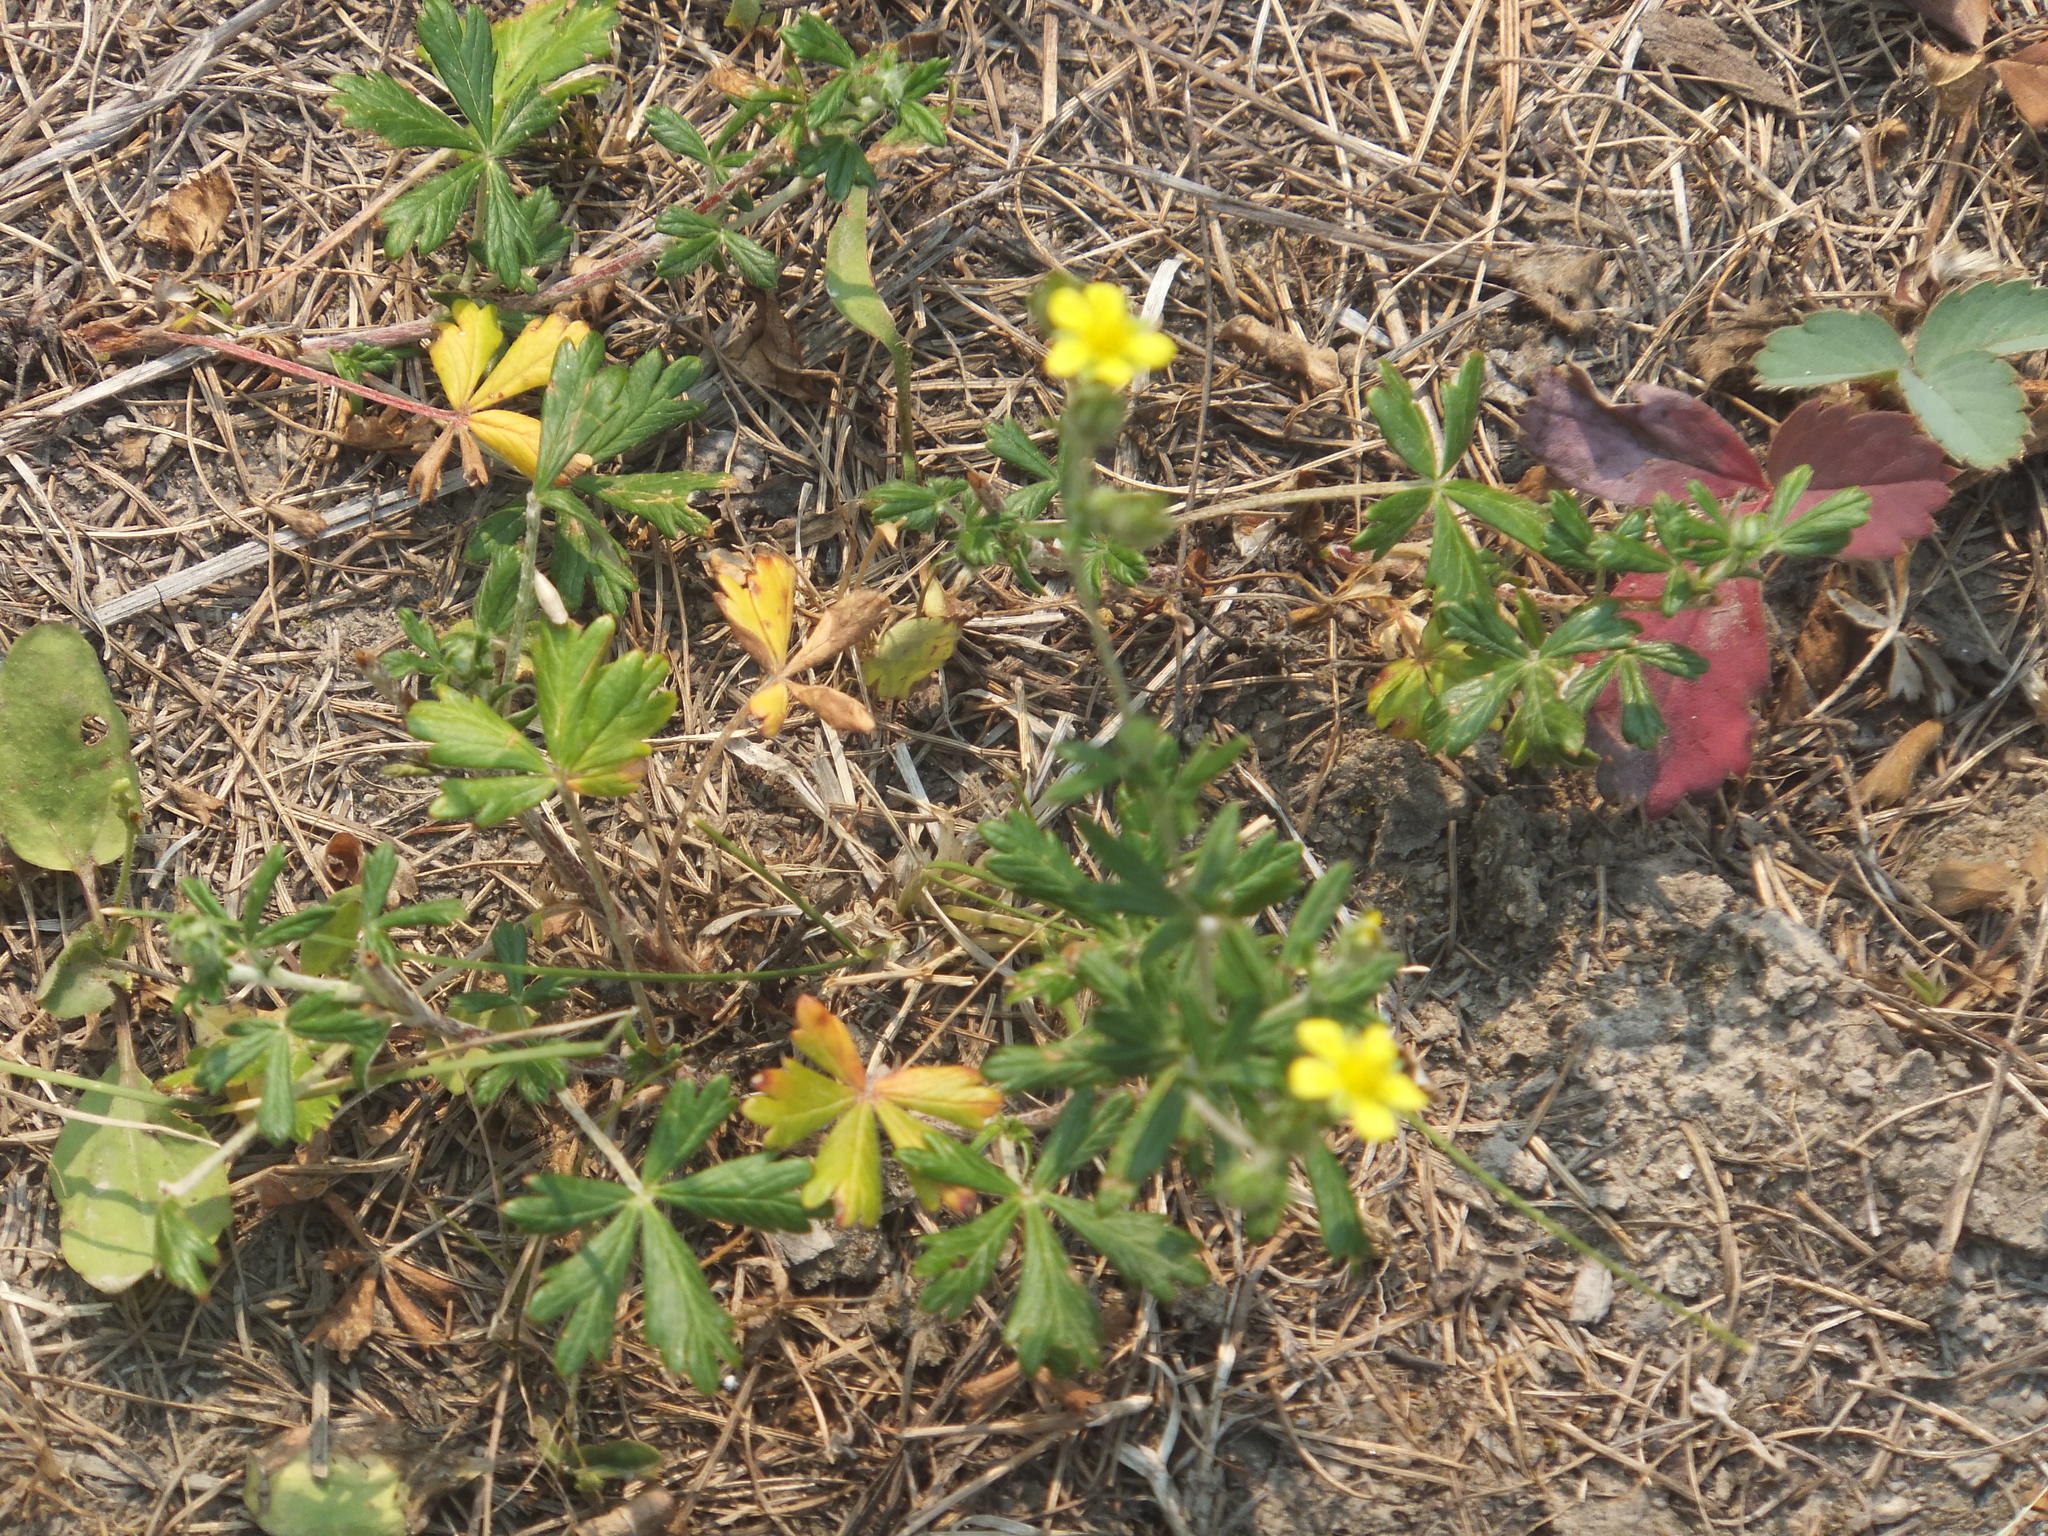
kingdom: Plantae
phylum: Tracheophyta
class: Magnoliopsida
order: Rosales
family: Rosaceae
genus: Potentilla
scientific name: Potentilla argentea
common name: Hoary cinquefoil
